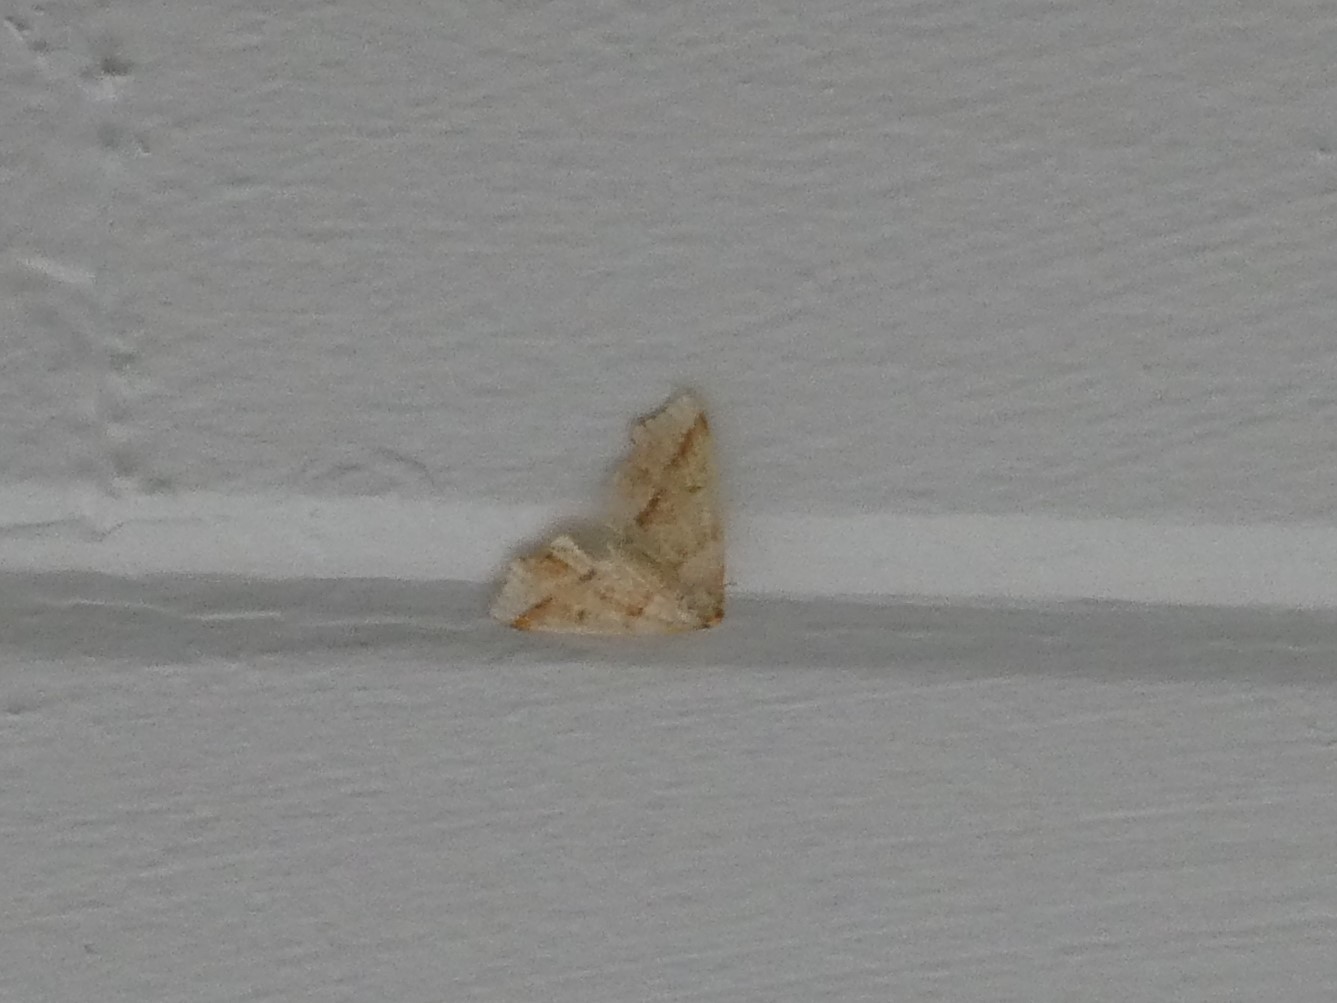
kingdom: Animalia
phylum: Arthropoda
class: Insecta
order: Lepidoptera
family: Geometridae
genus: Plagodis
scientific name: Plagodis alcoolaria
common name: Hollow-spotted plagodis
